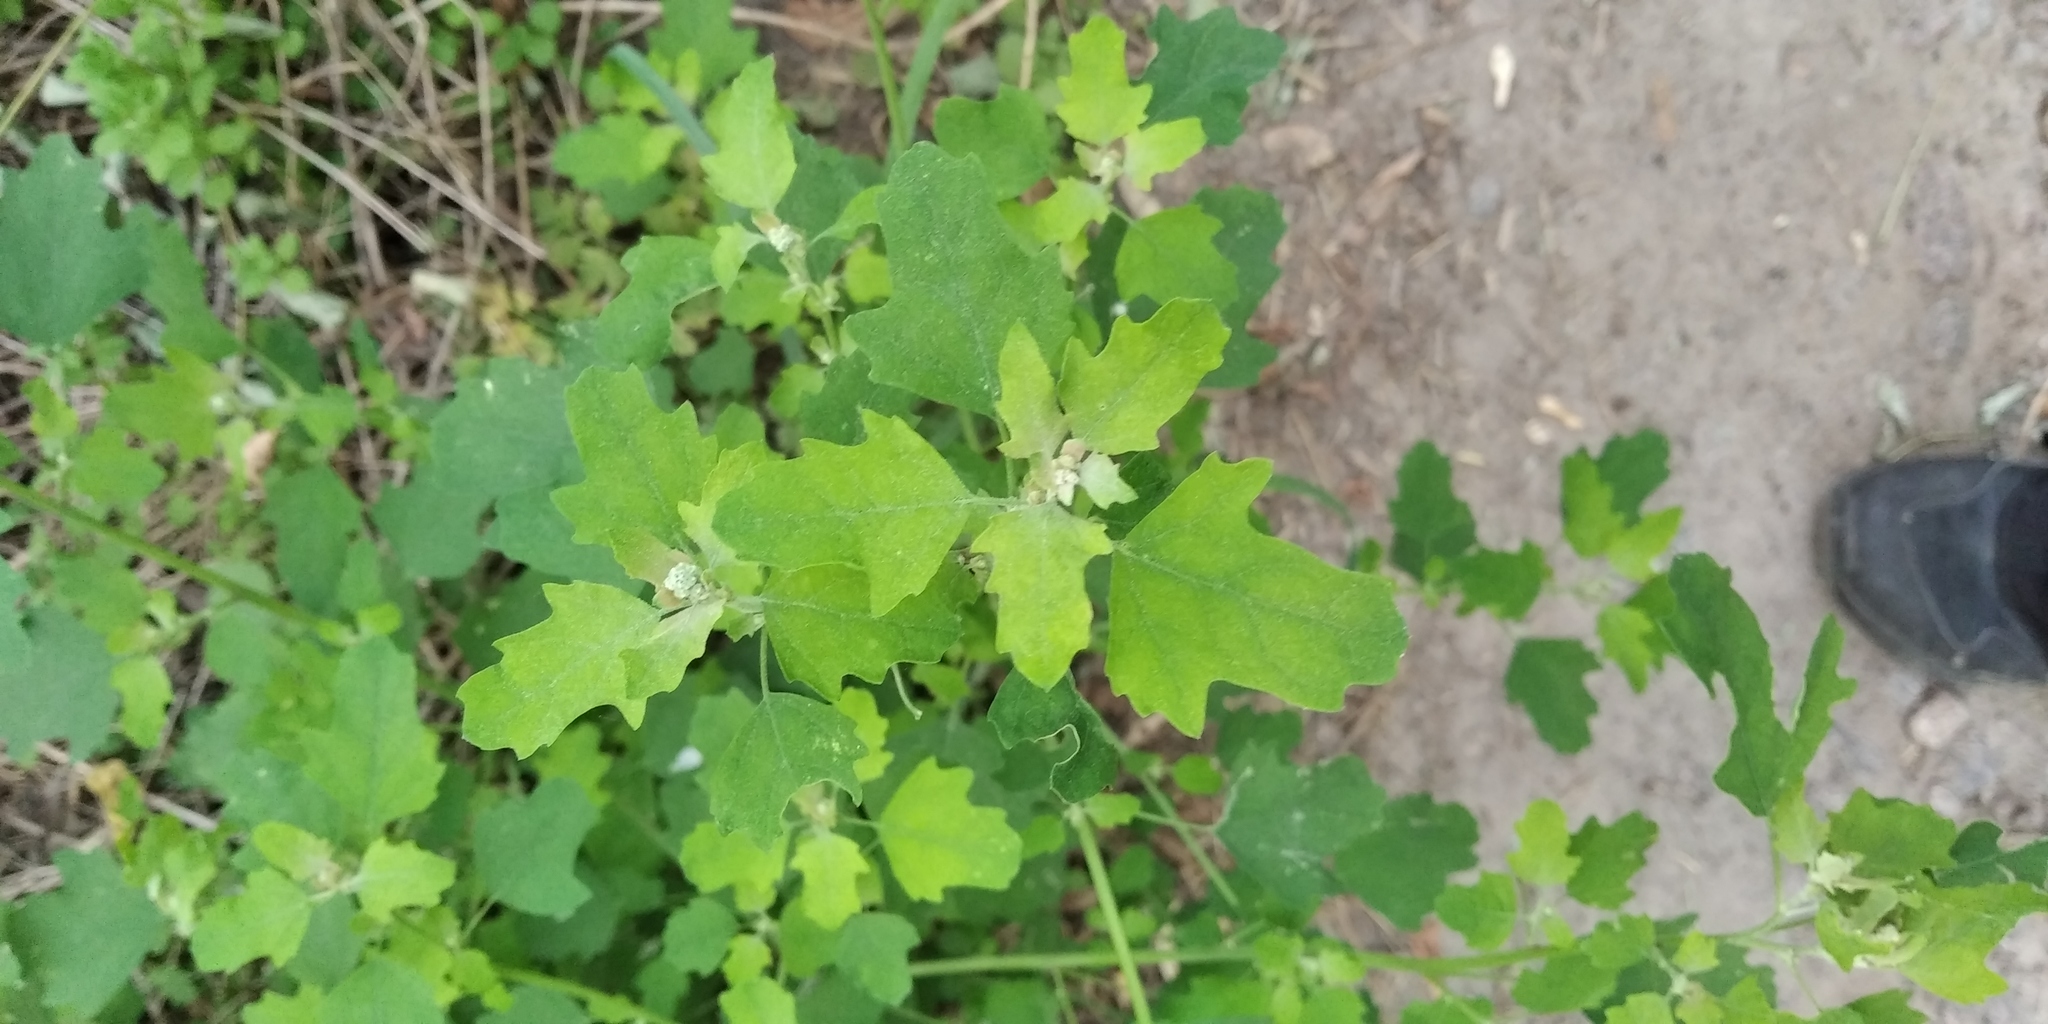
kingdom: Plantae
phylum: Tracheophyta
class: Magnoliopsida
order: Caryophyllales
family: Amaranthaceae
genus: Chenopodium
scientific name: Chenopodium ucrainicum
